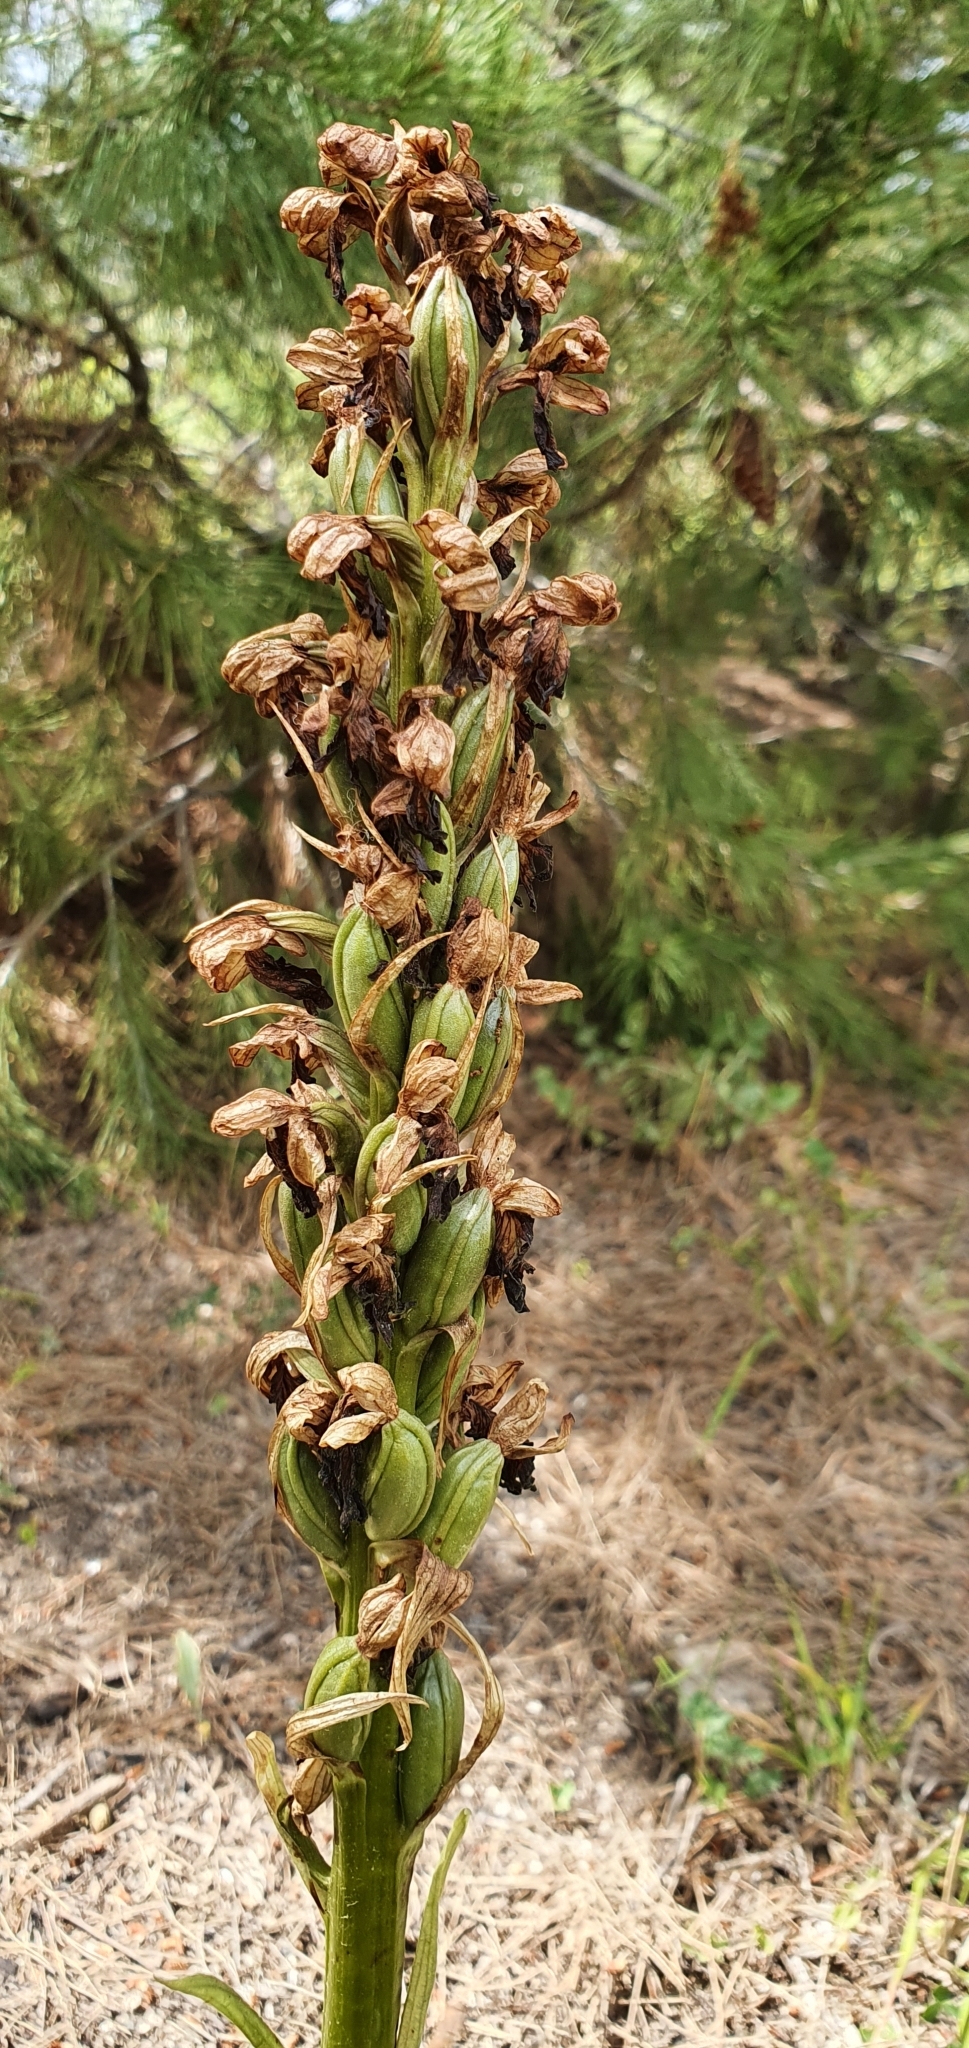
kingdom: Plantae
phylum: Tracheophyta
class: Liliopsida
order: Asparagales
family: Orchidaceae
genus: Himantoglossum
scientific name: Himantoglossum robertianum
